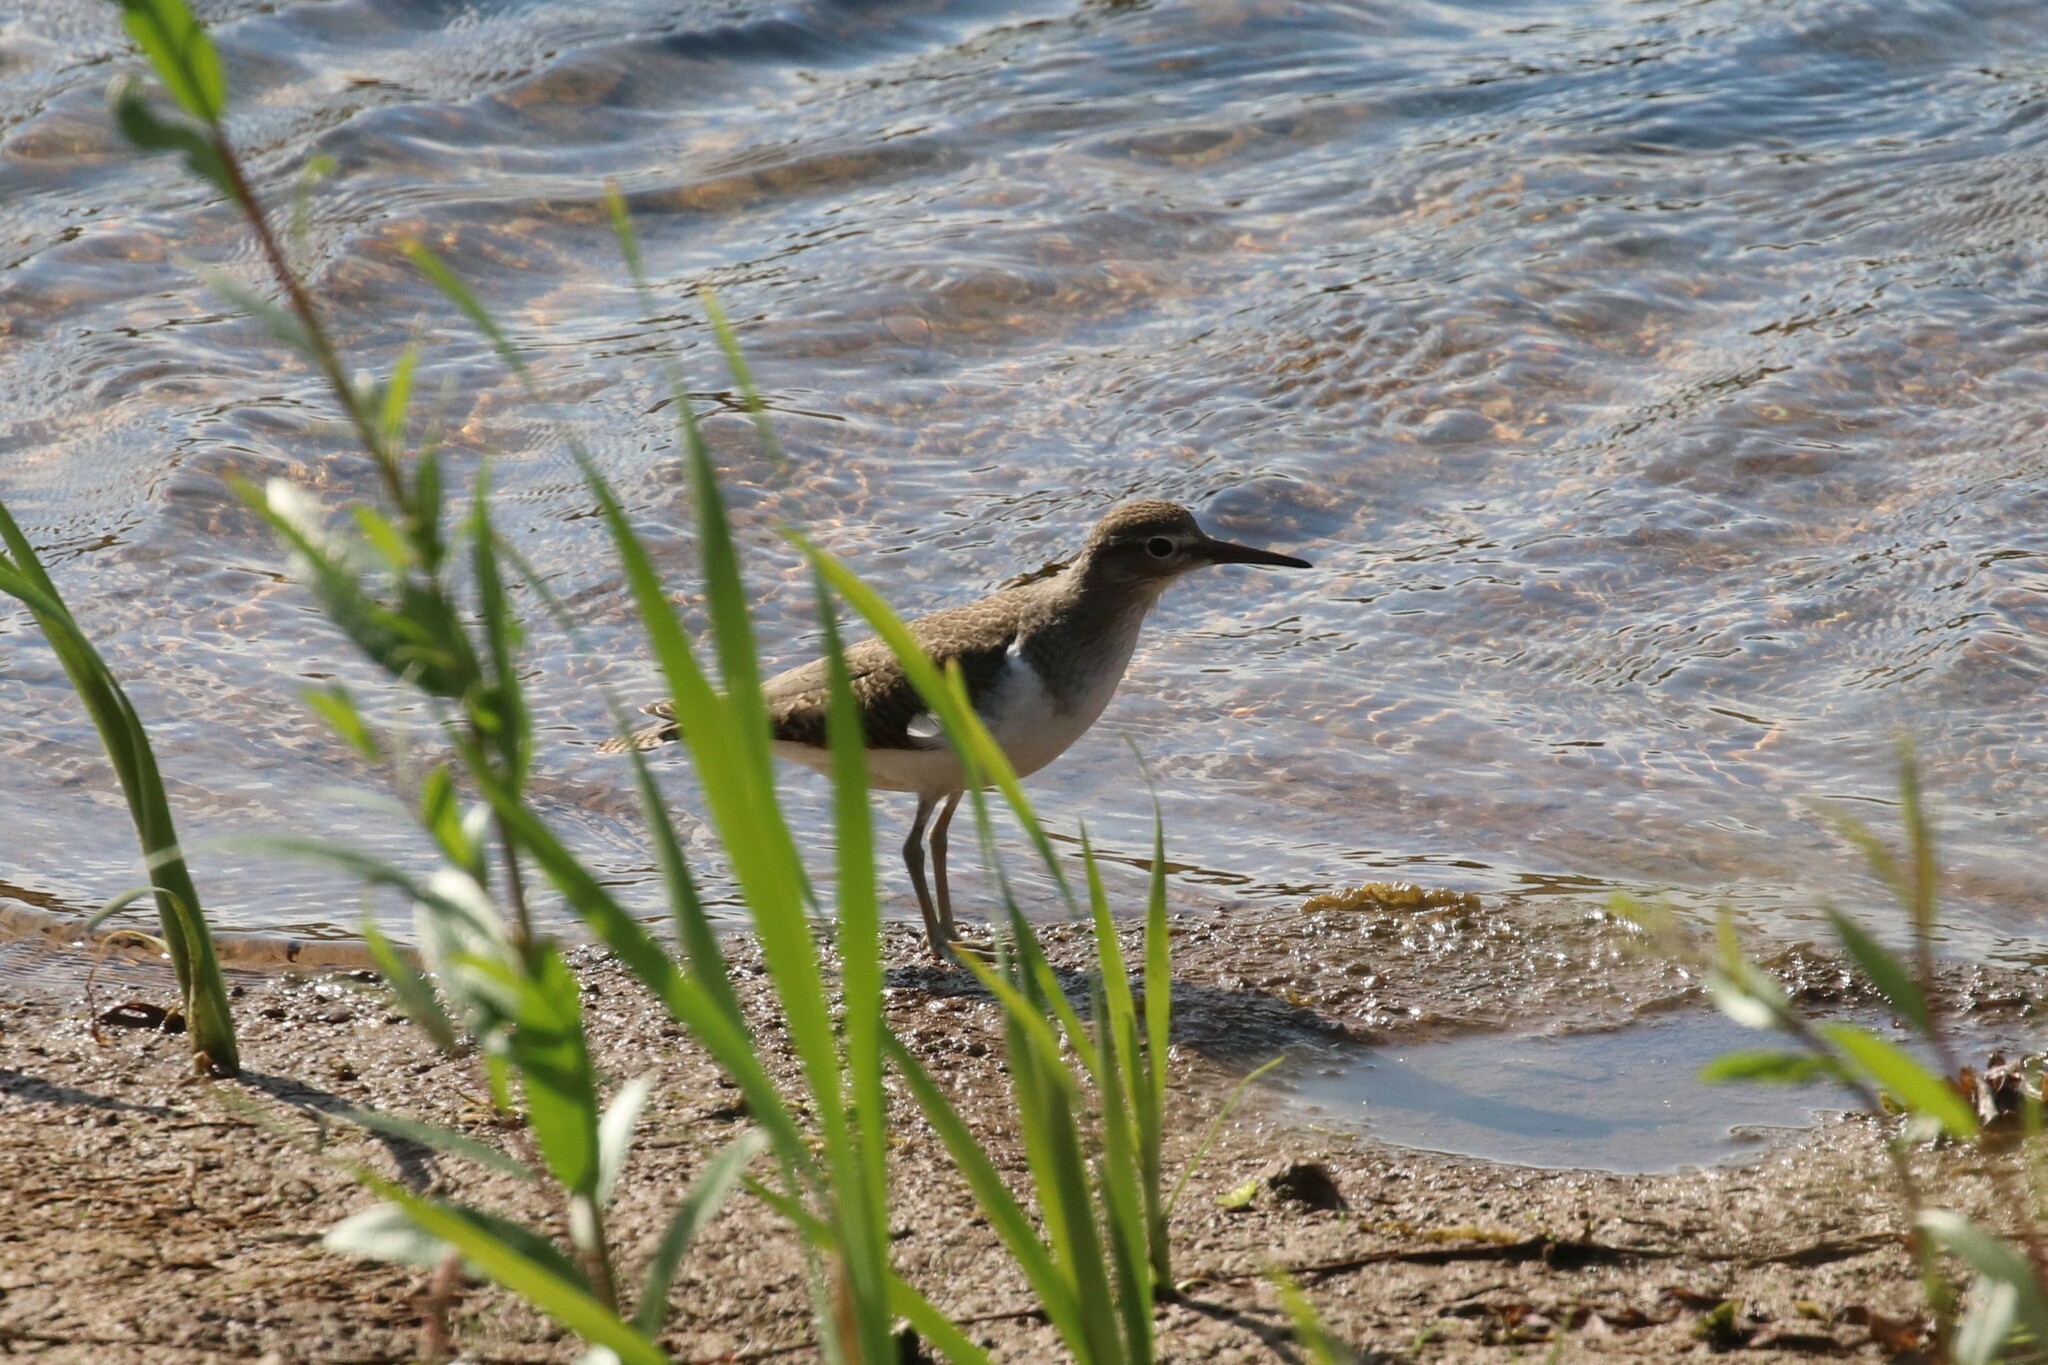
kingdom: Animalia
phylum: Chordata
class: Aves
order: Charadriiformes
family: Scolopacidae
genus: Actitis
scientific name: Actitis hypoleucos
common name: Common sandpiper
